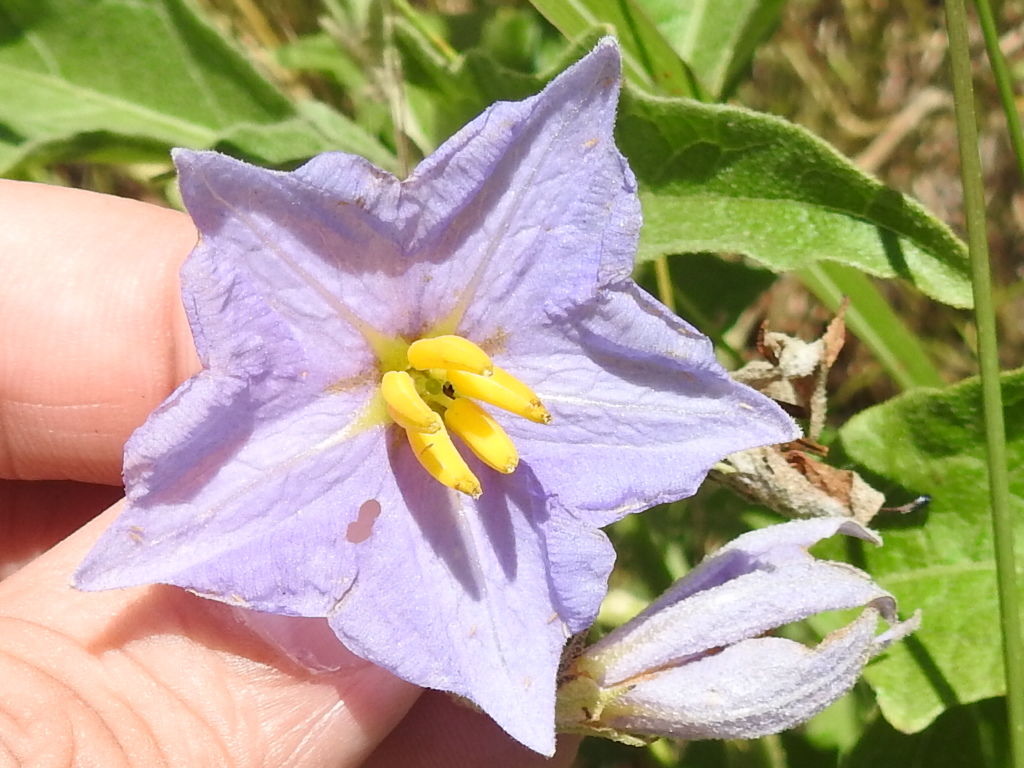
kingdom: Plantae
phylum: Tracheophyta
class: Magnoliopsida
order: Solanales
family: Solanaceae
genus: Solanum
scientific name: Solanum dimidiatum
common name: Carolina horse-nettle
